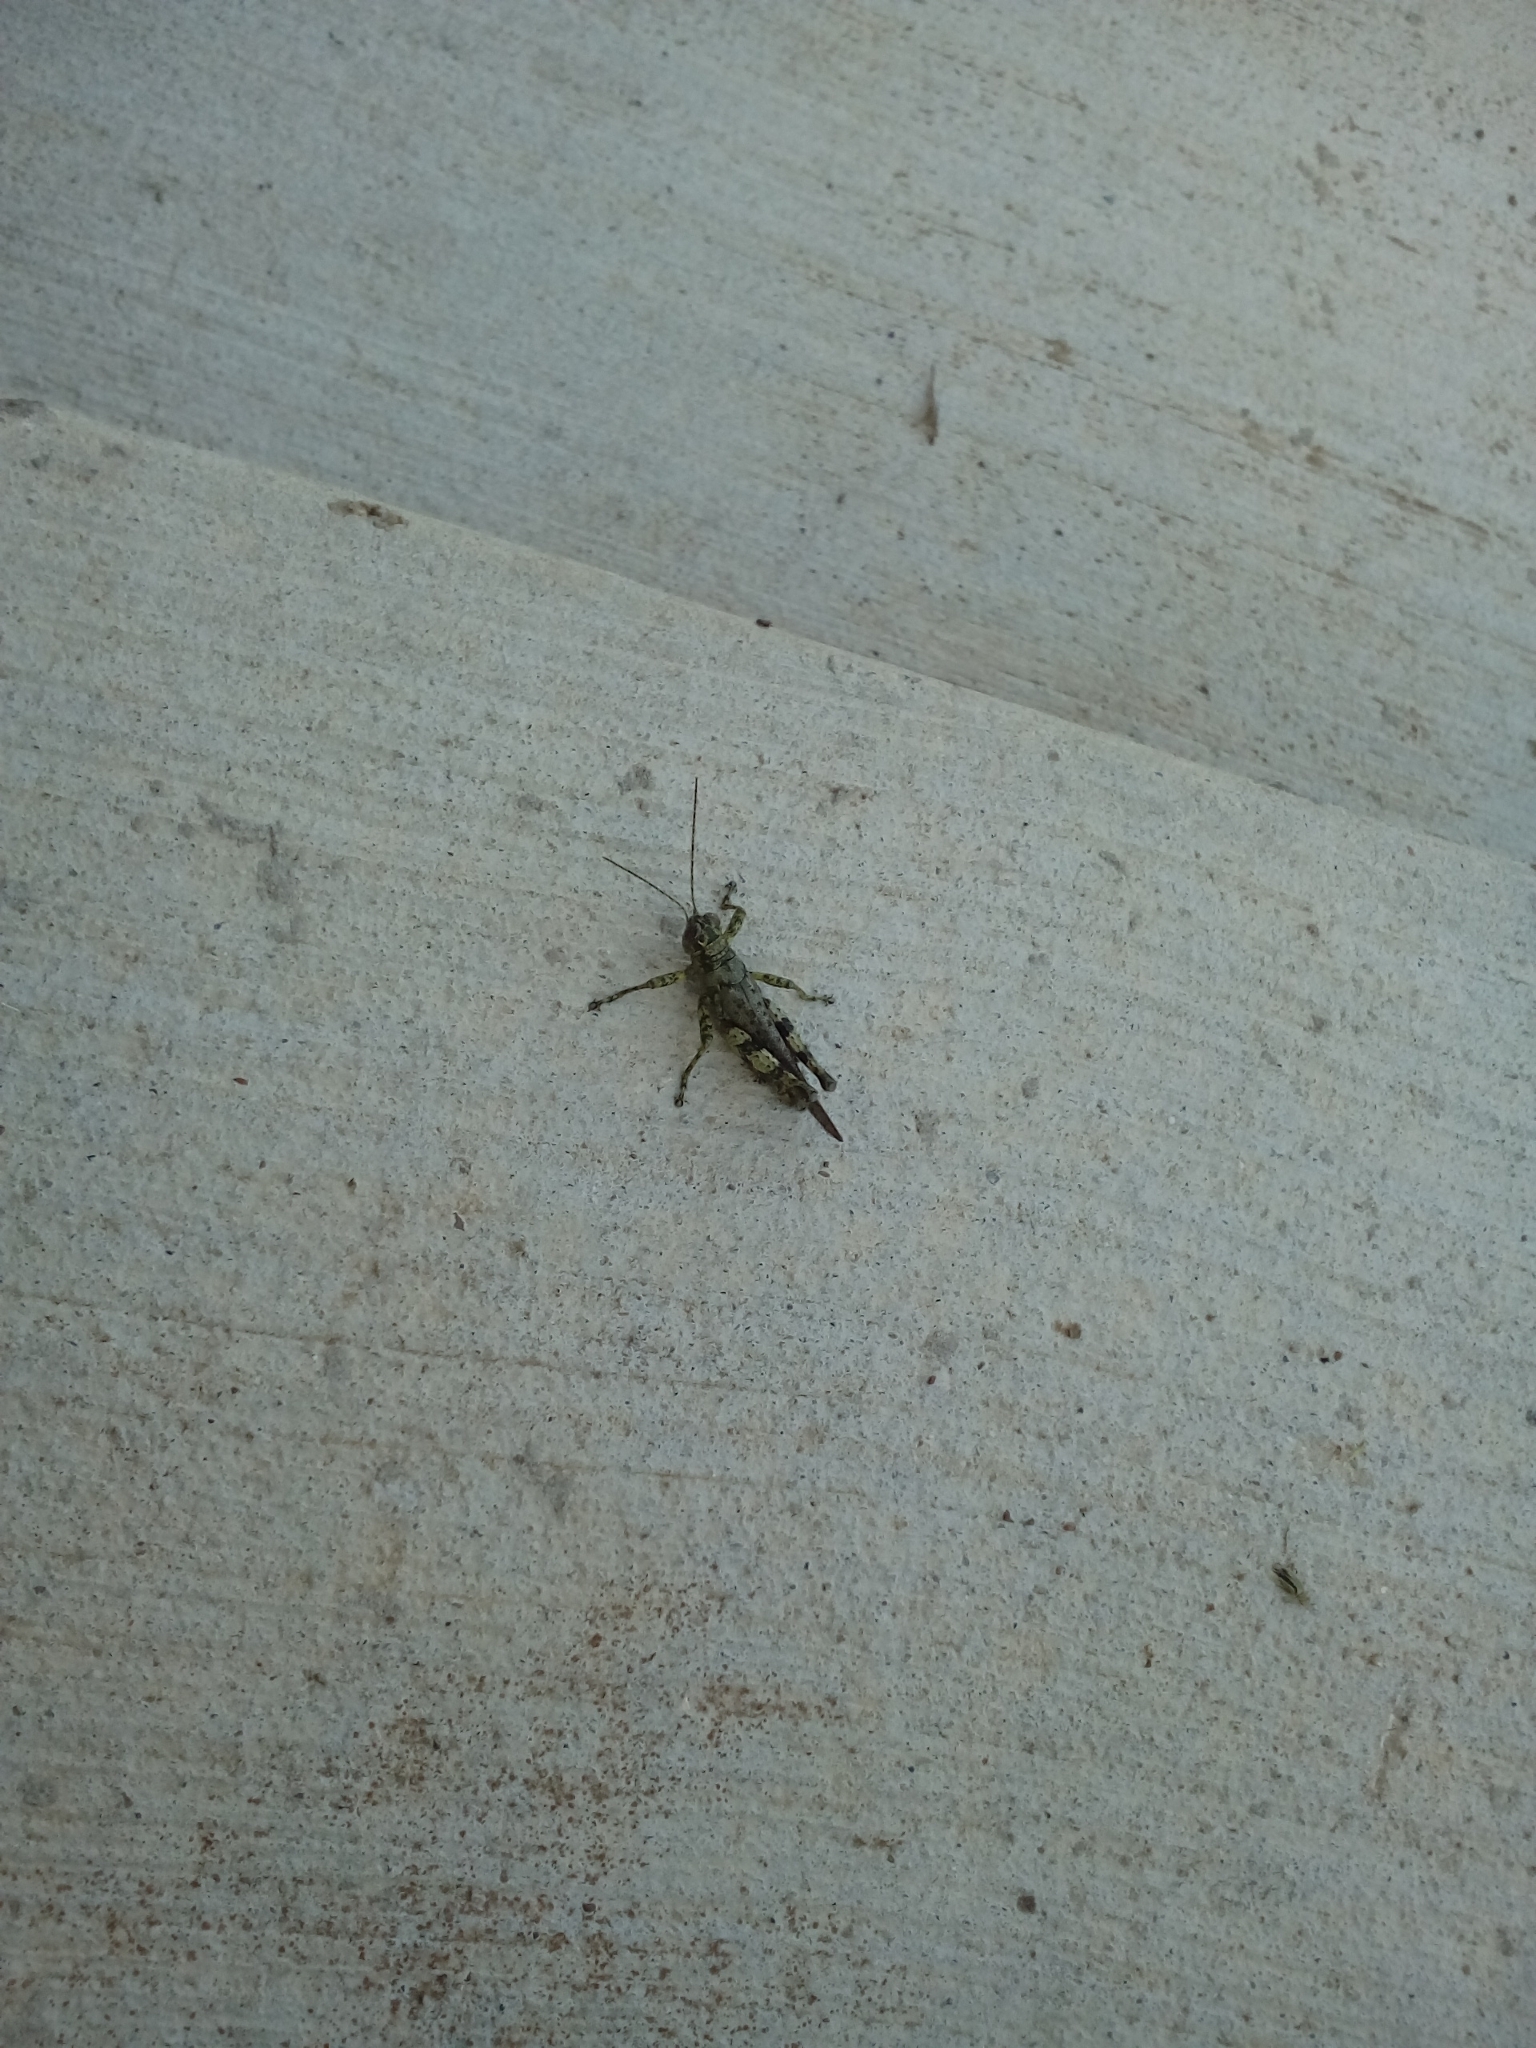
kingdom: Animalia
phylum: Arthropoda
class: Insecta
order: Orthoptera
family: Acrididae
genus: Melanoplus
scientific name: Melanoplus punctulatus
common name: Pine-tree spur-throat grasshopper
